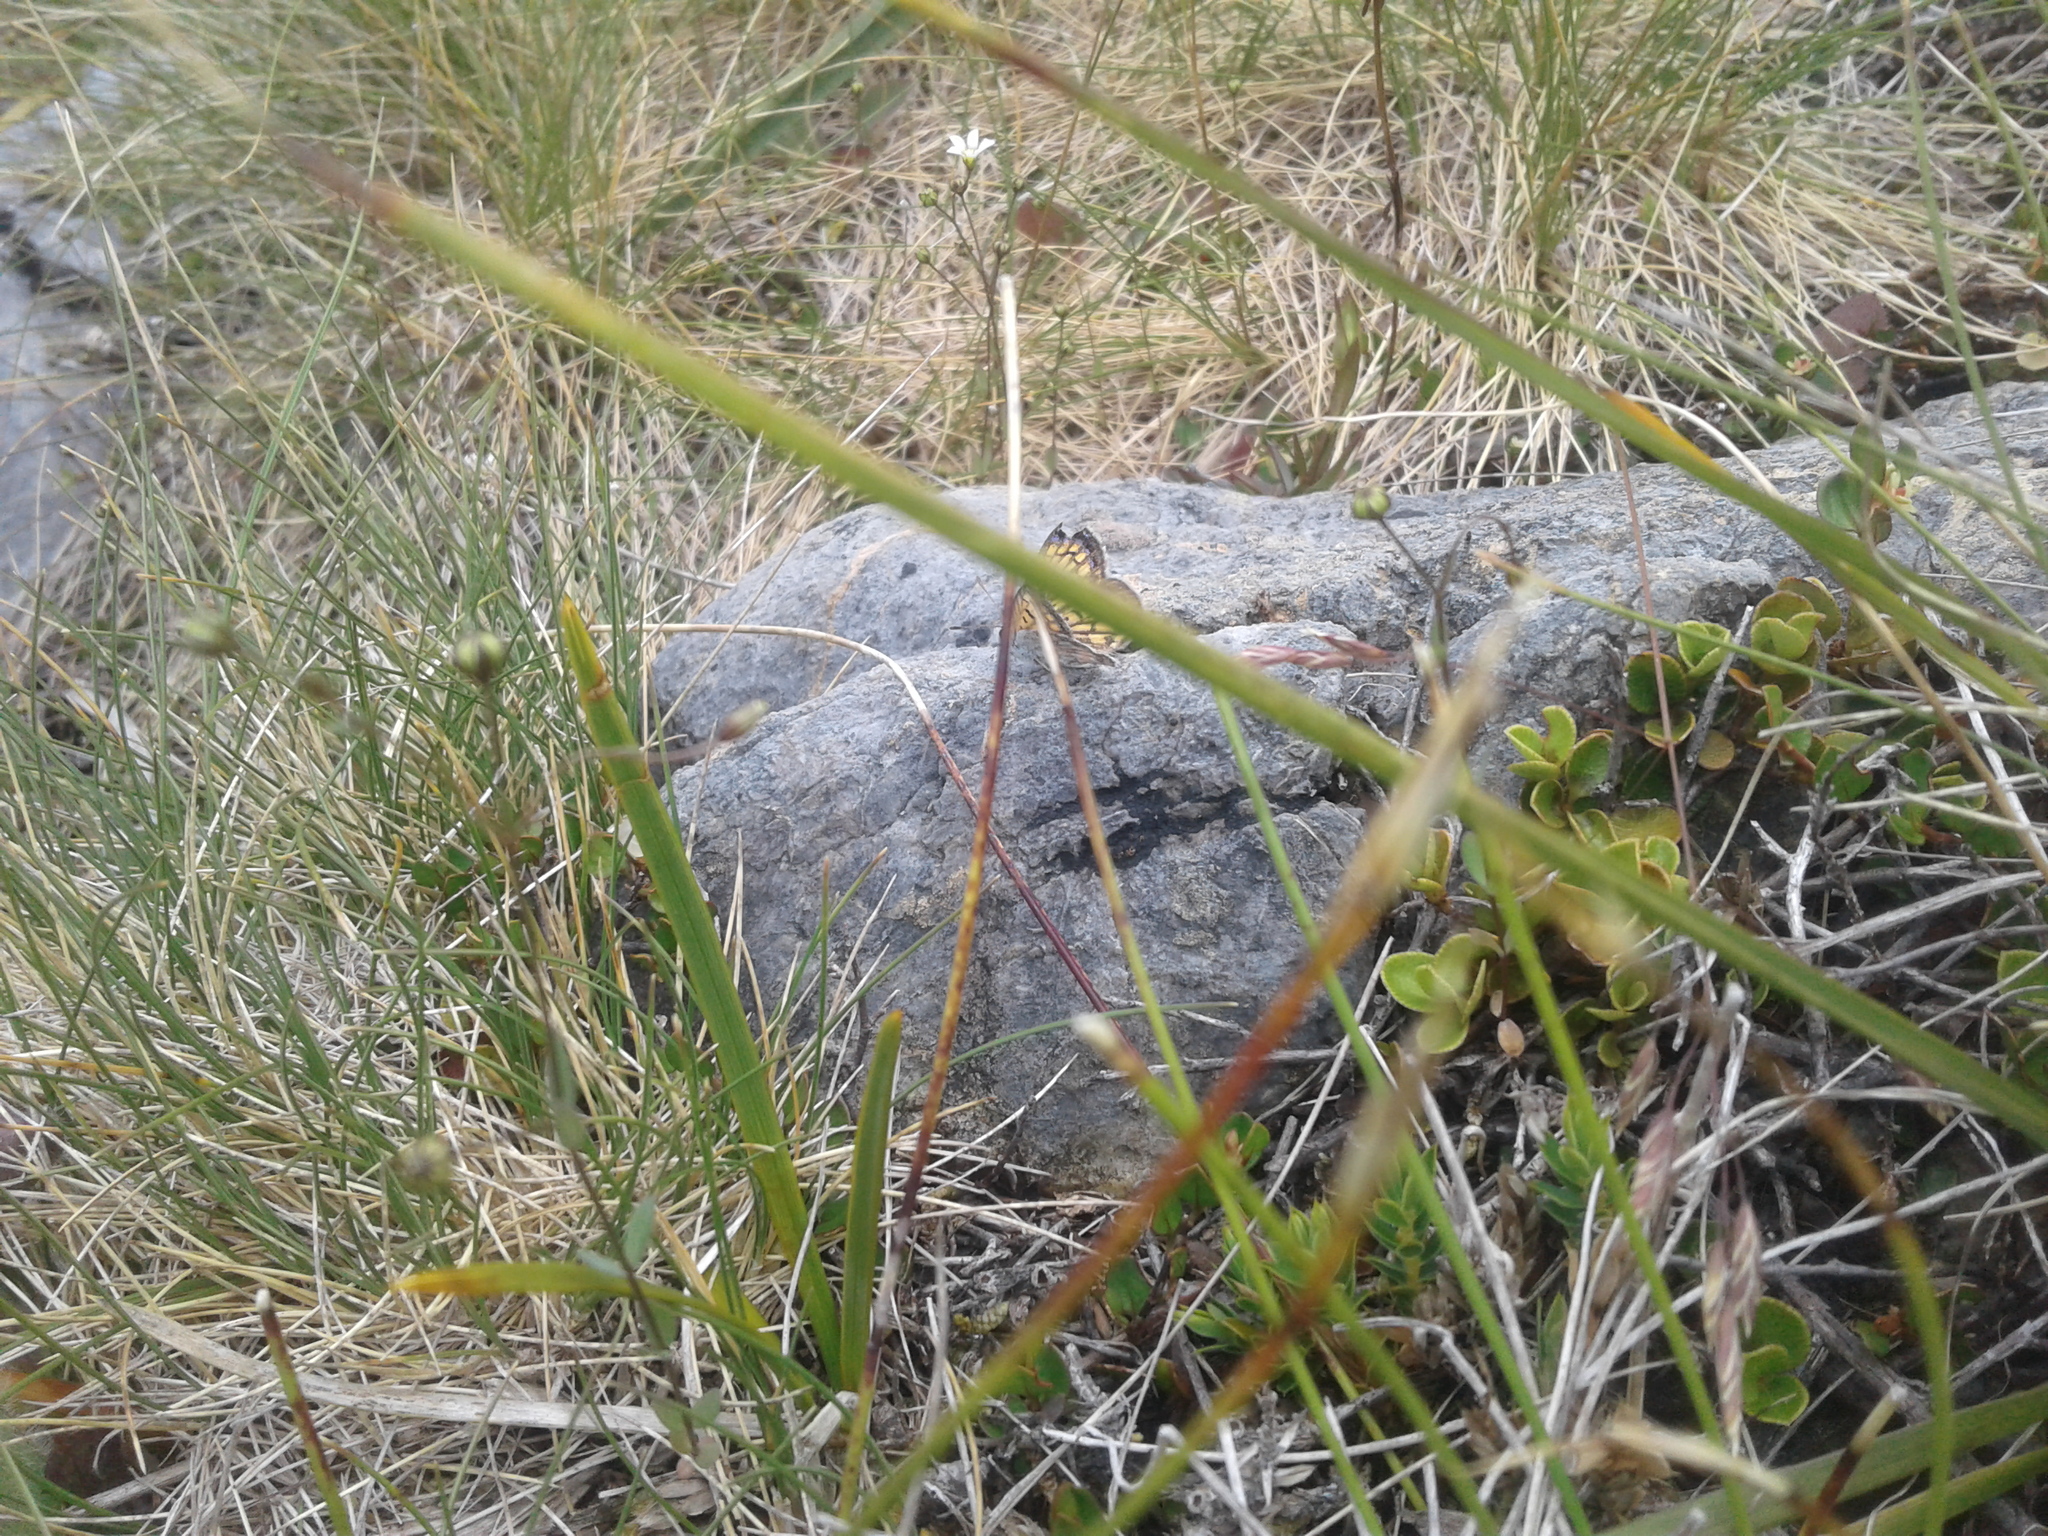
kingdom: Animalia
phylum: Arthropoda
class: Insecta
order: Lepidoptera
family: Lycaenidae
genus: Lycaena
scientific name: Lycaena boldenarum
